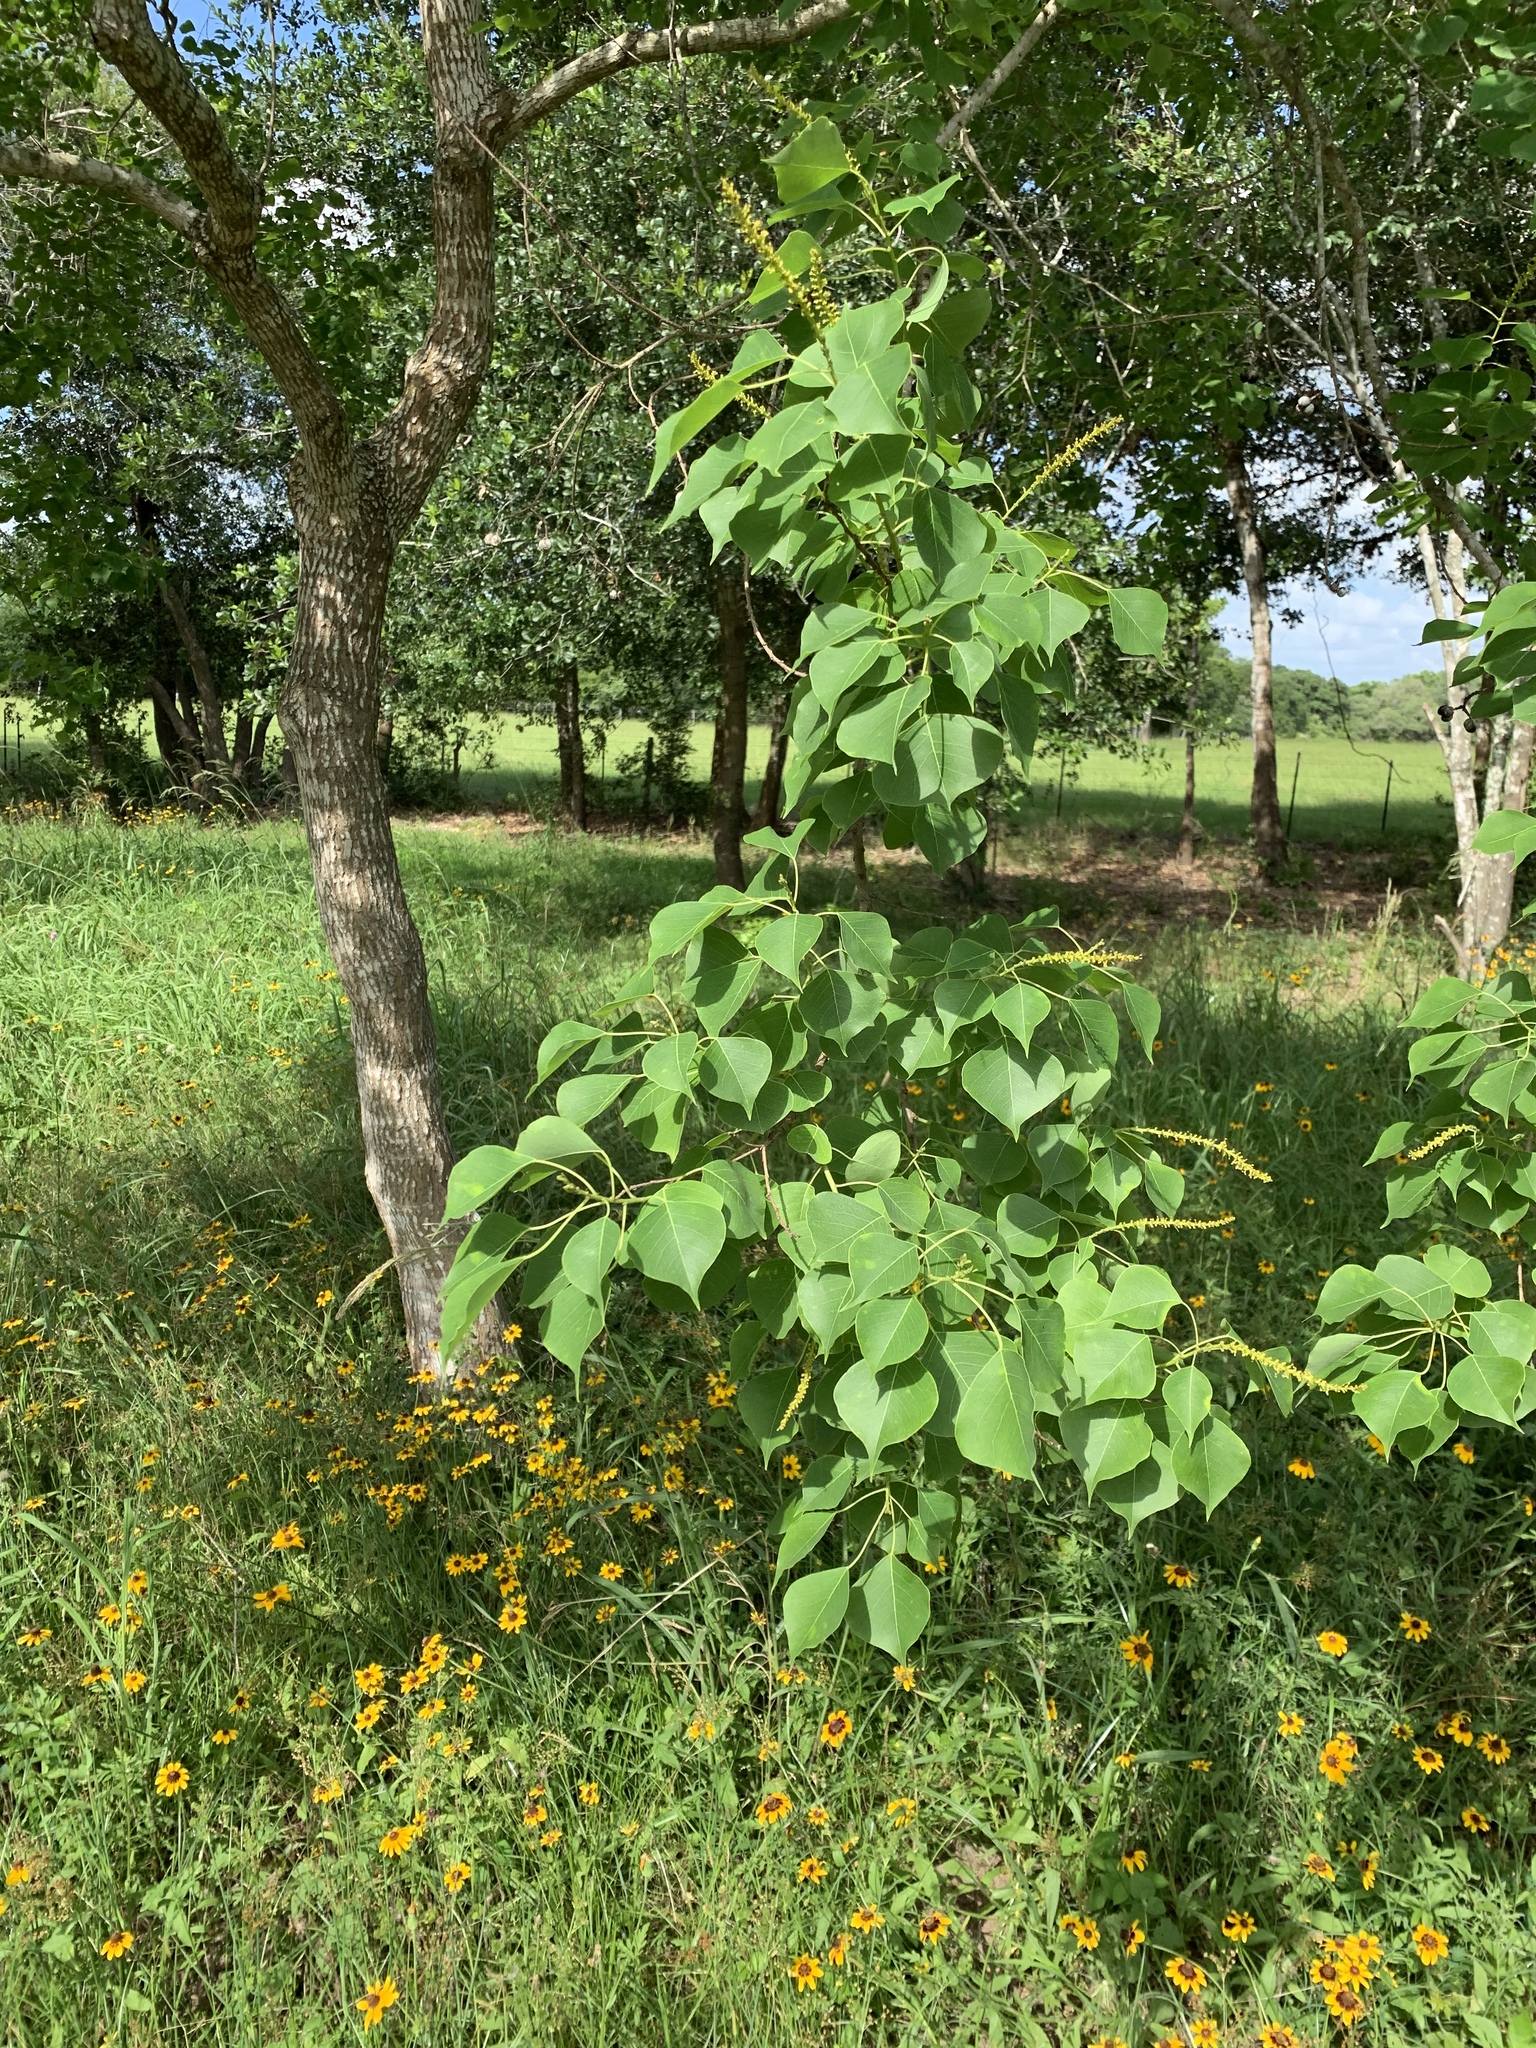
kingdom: Plantae
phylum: Tracheophyta
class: Magnoliopsida
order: Malpighiales
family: Euphorbiaceae
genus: Triadica
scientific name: Triadica sebifera
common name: Chinese tallow
